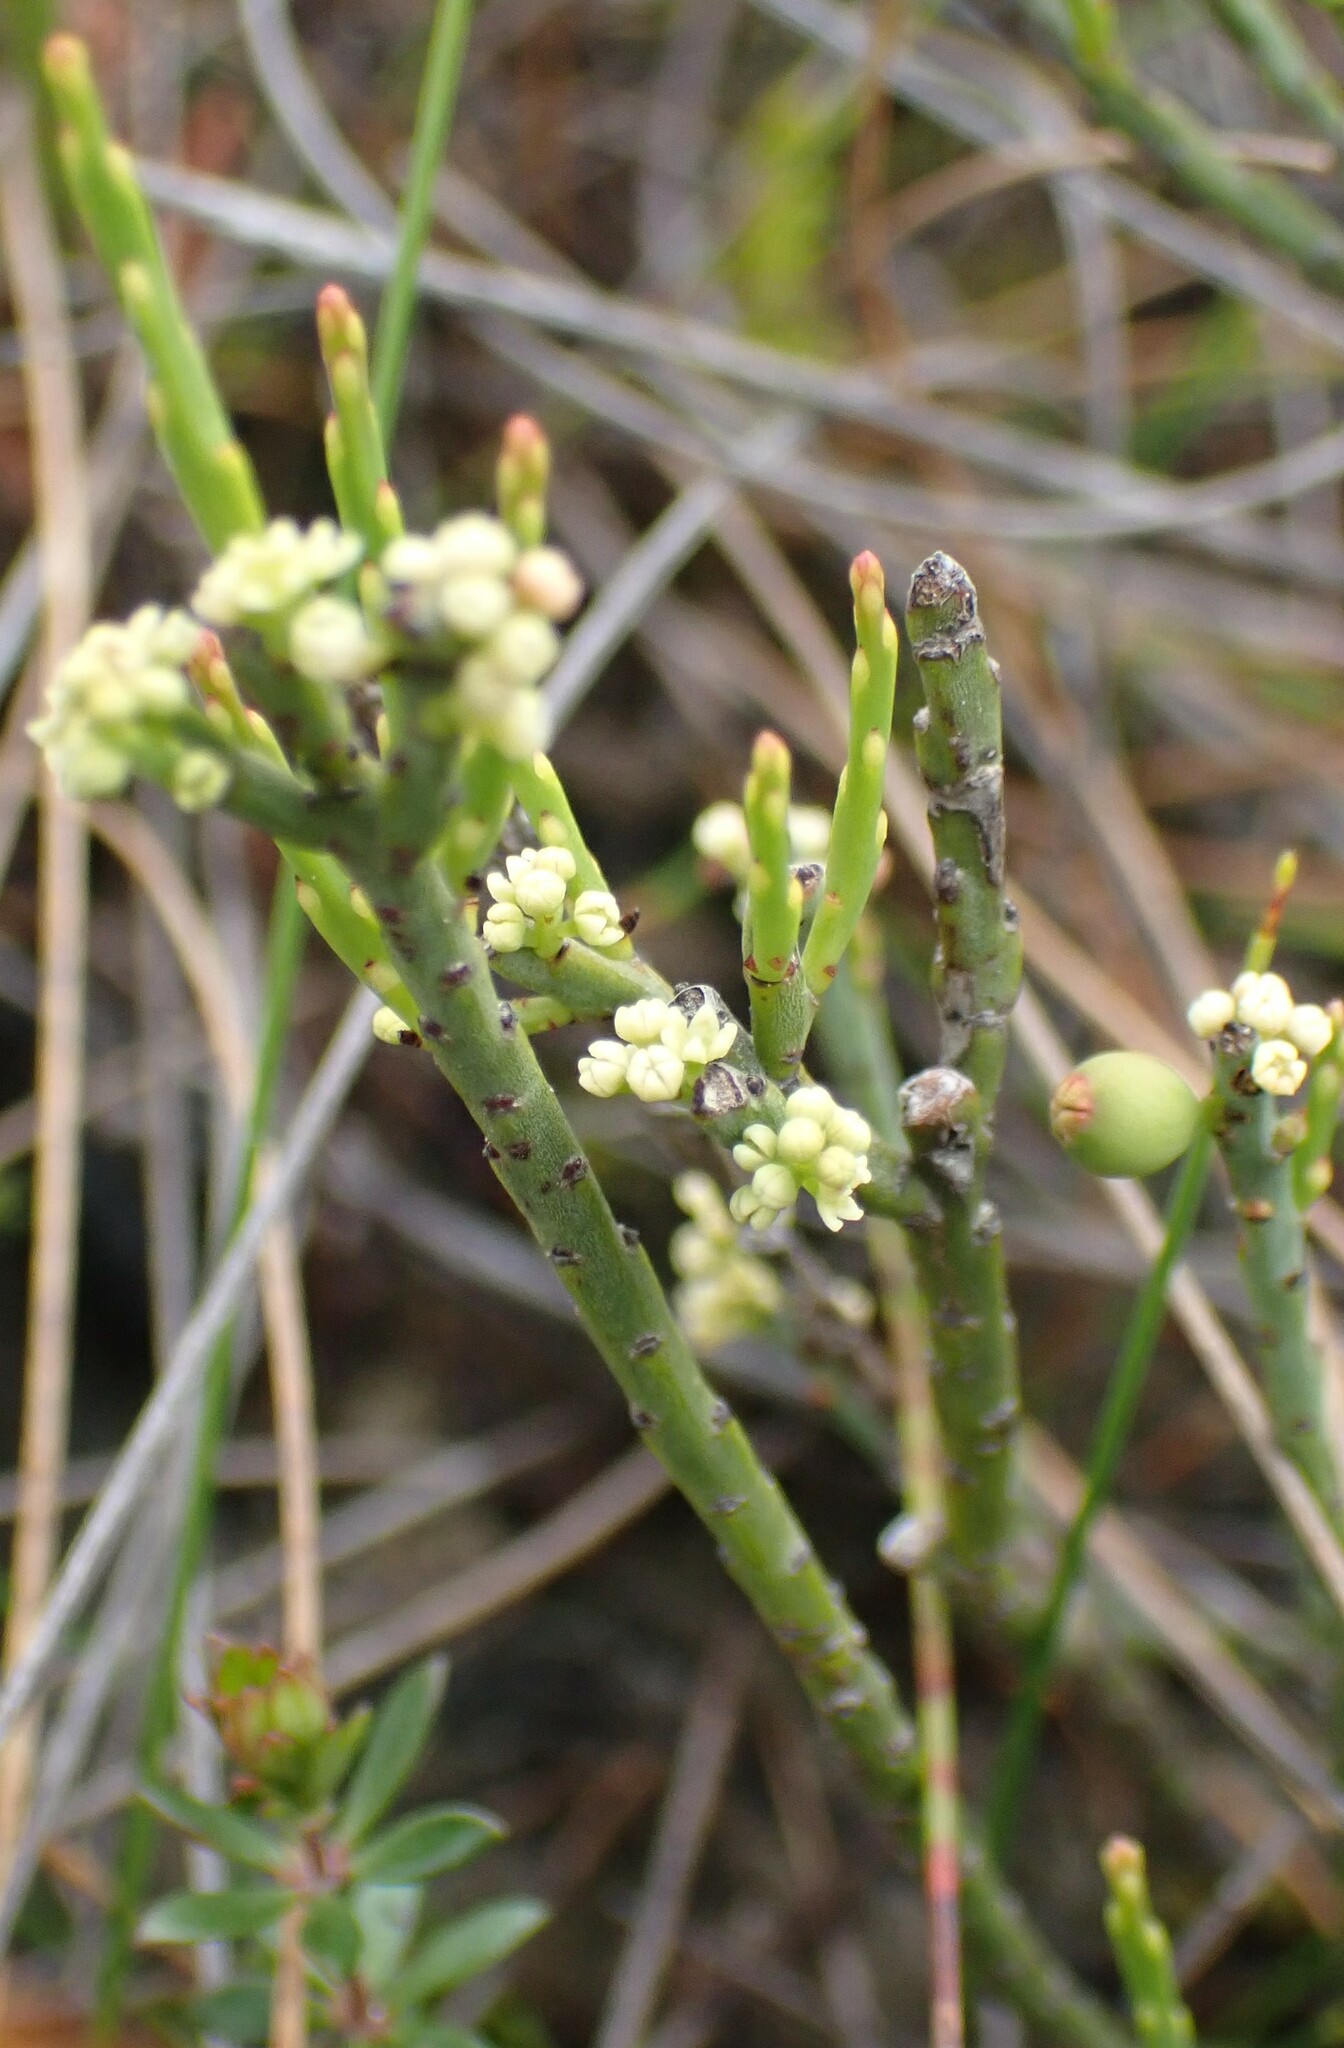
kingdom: Plantae
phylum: Tracheophyta
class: Magnoliopsida
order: Santalales
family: Amphorogynaceae
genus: Leptomeria
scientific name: Leptomeria glomerata
